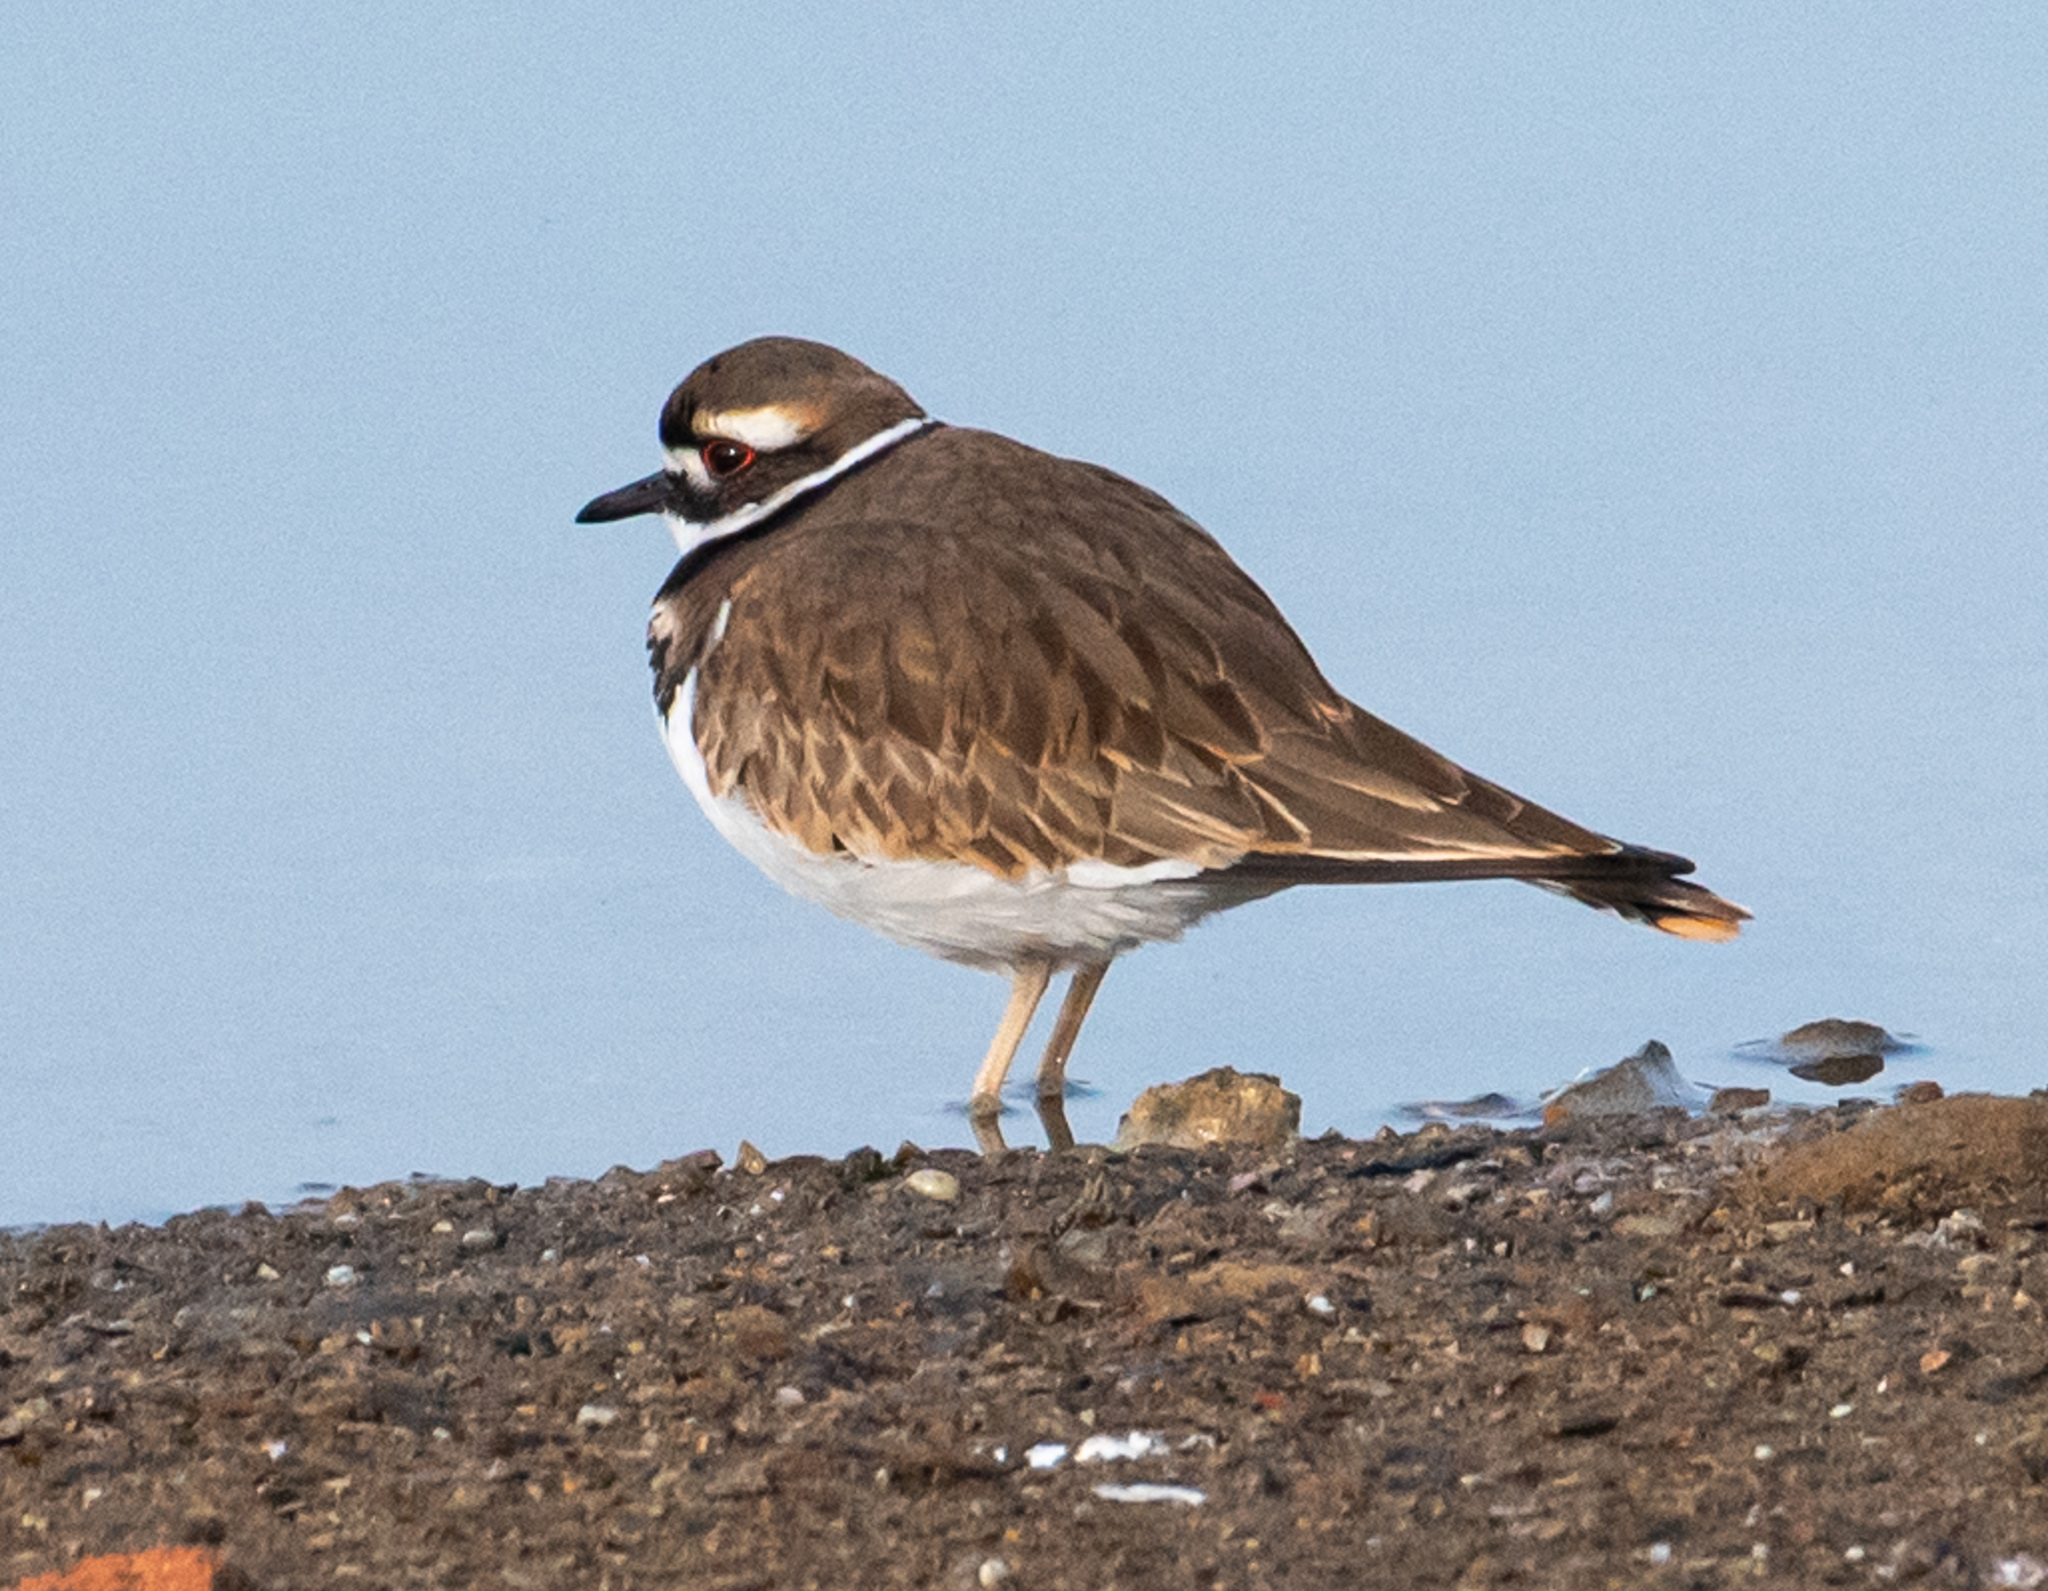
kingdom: Animalia
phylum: Chordata
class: Aves
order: Charadriiformes
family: Charadriidae
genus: Charadrius
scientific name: Charadrius vociferus
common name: Killdeer
